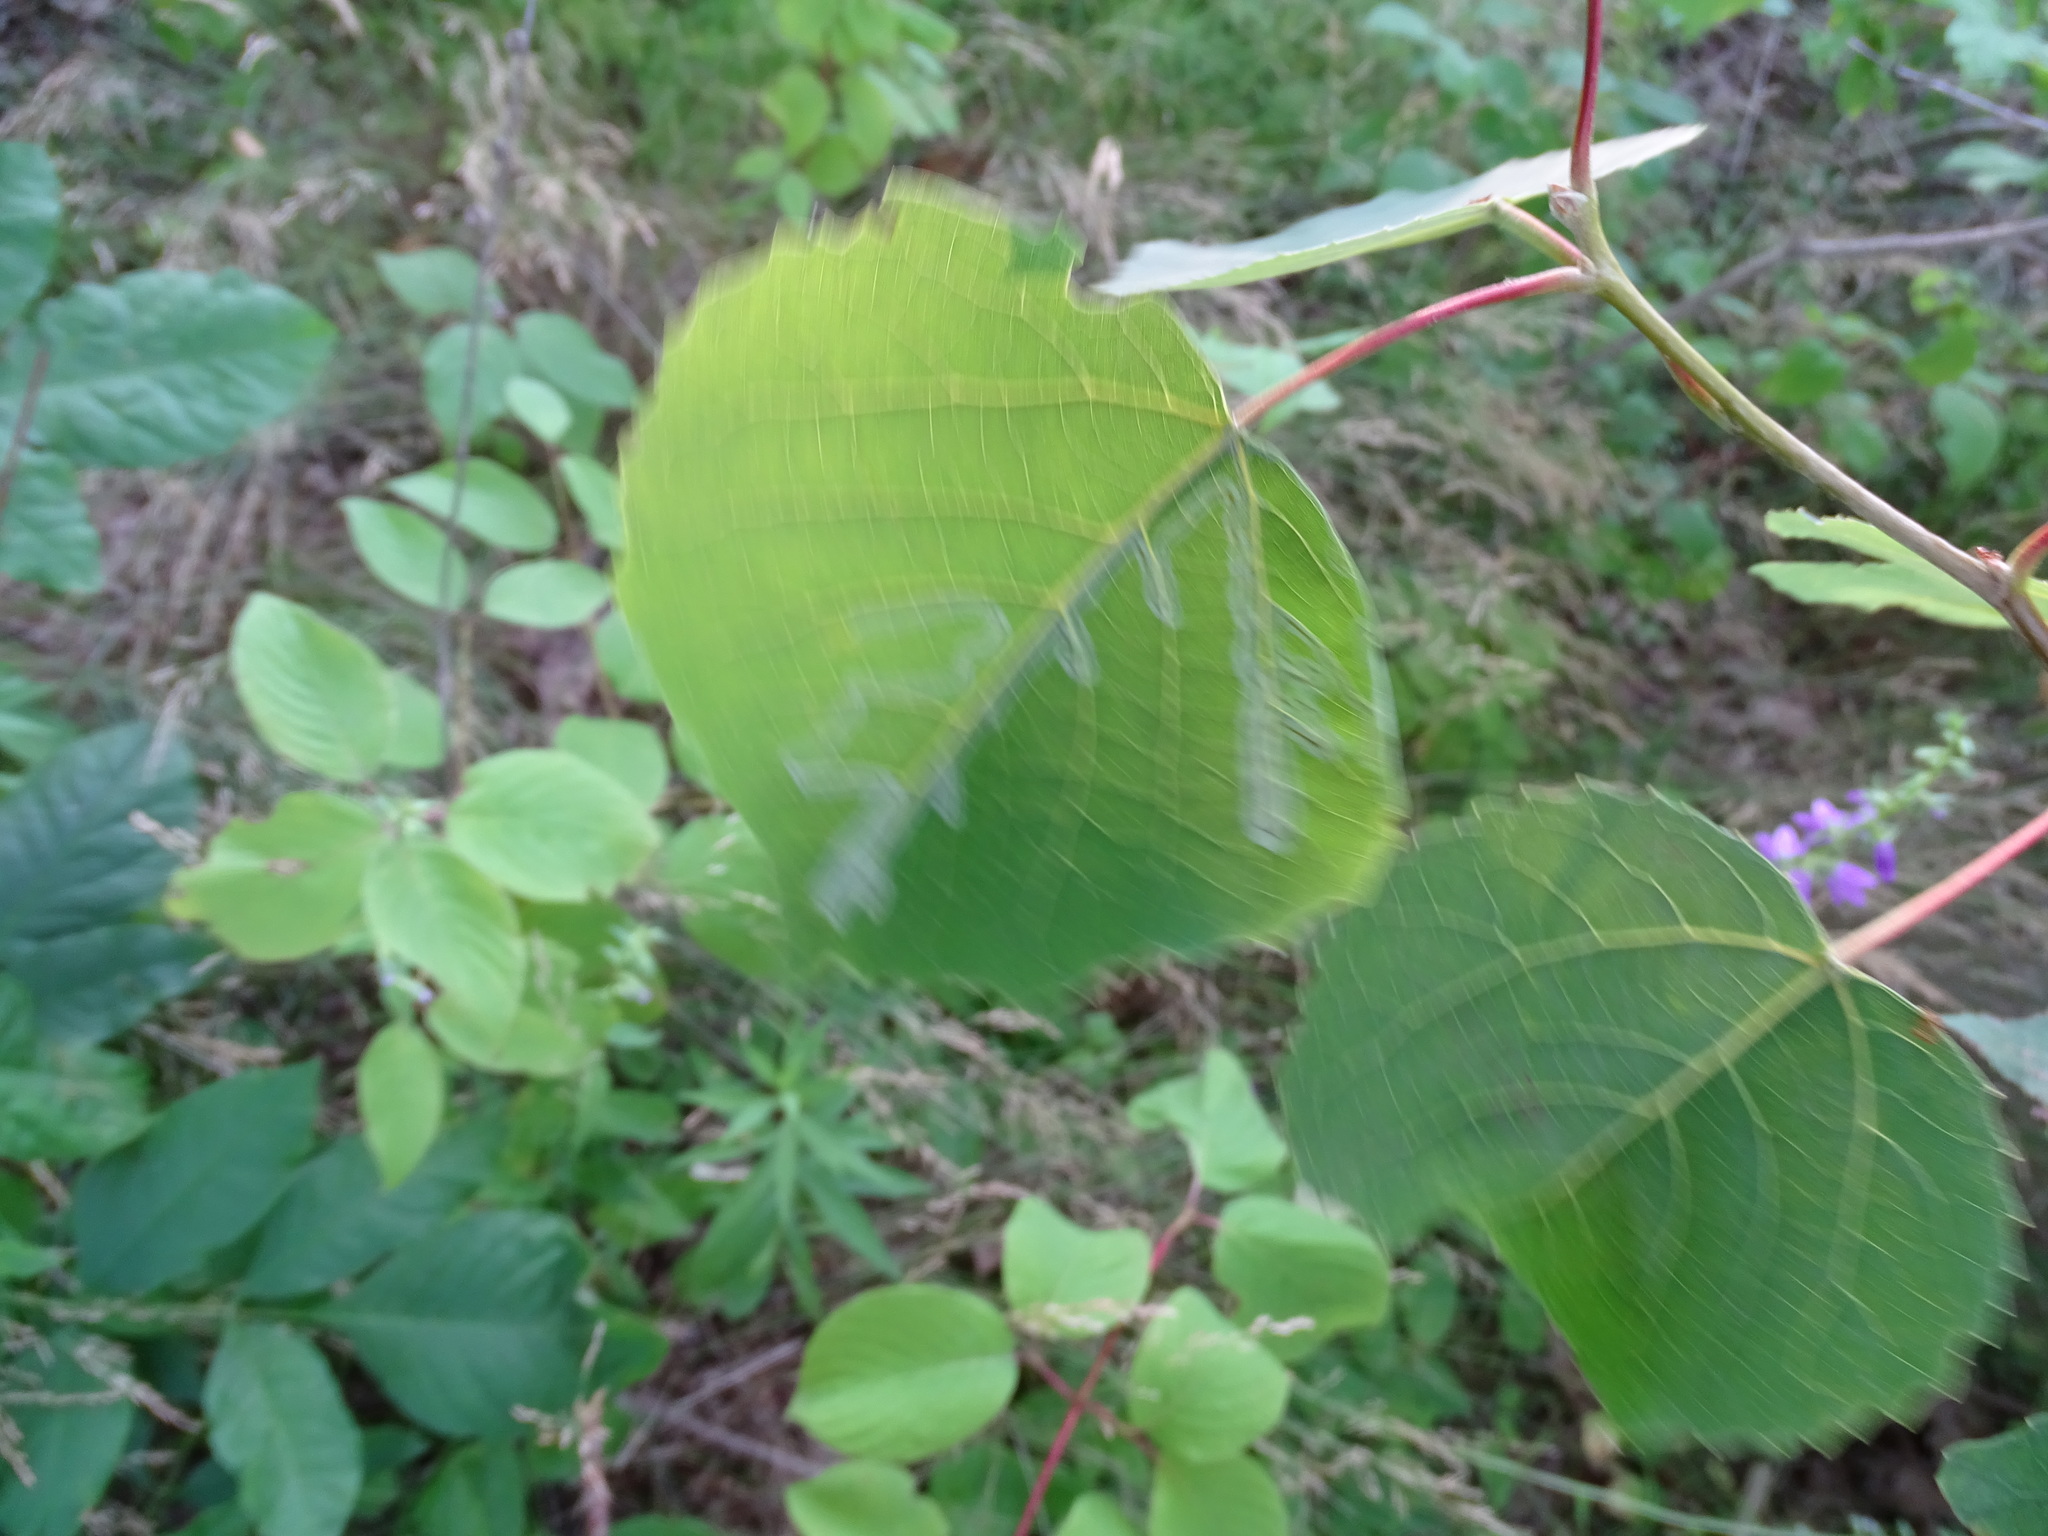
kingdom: Plantae
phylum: Tracheophyta
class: Magnoliopsida
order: Malpighiales
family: Salicaceae
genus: Populus
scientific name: Populus grandidentata
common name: Bigtooth aspen
